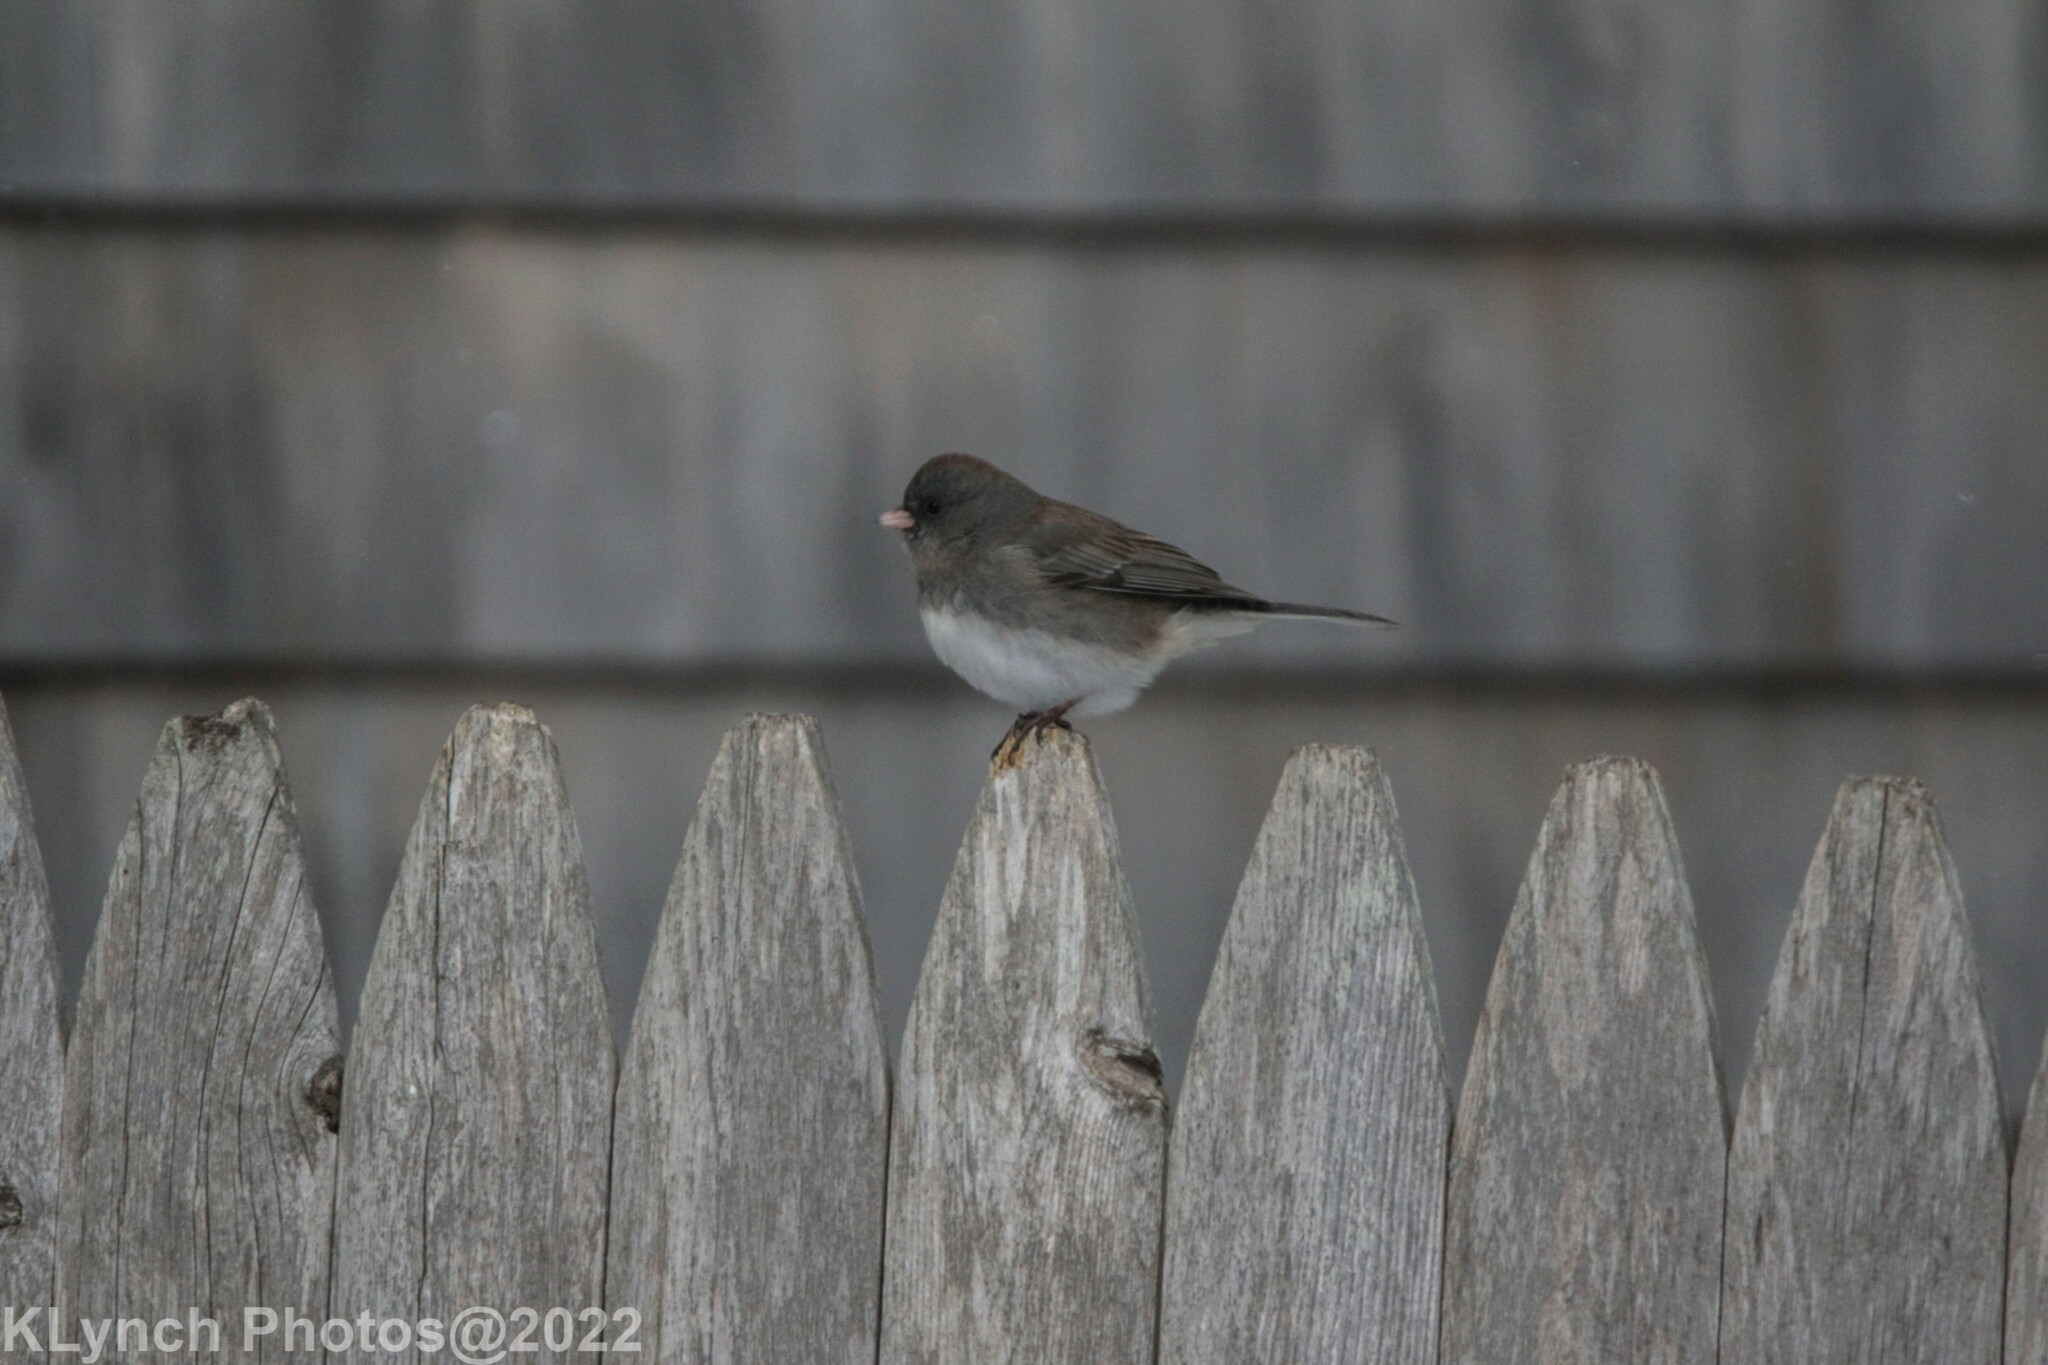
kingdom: Animalia
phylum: Chordata
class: Aves
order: Passeriformes
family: Passerellidae
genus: Junco
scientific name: Junco hyemalis
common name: Dark-eyed junco
